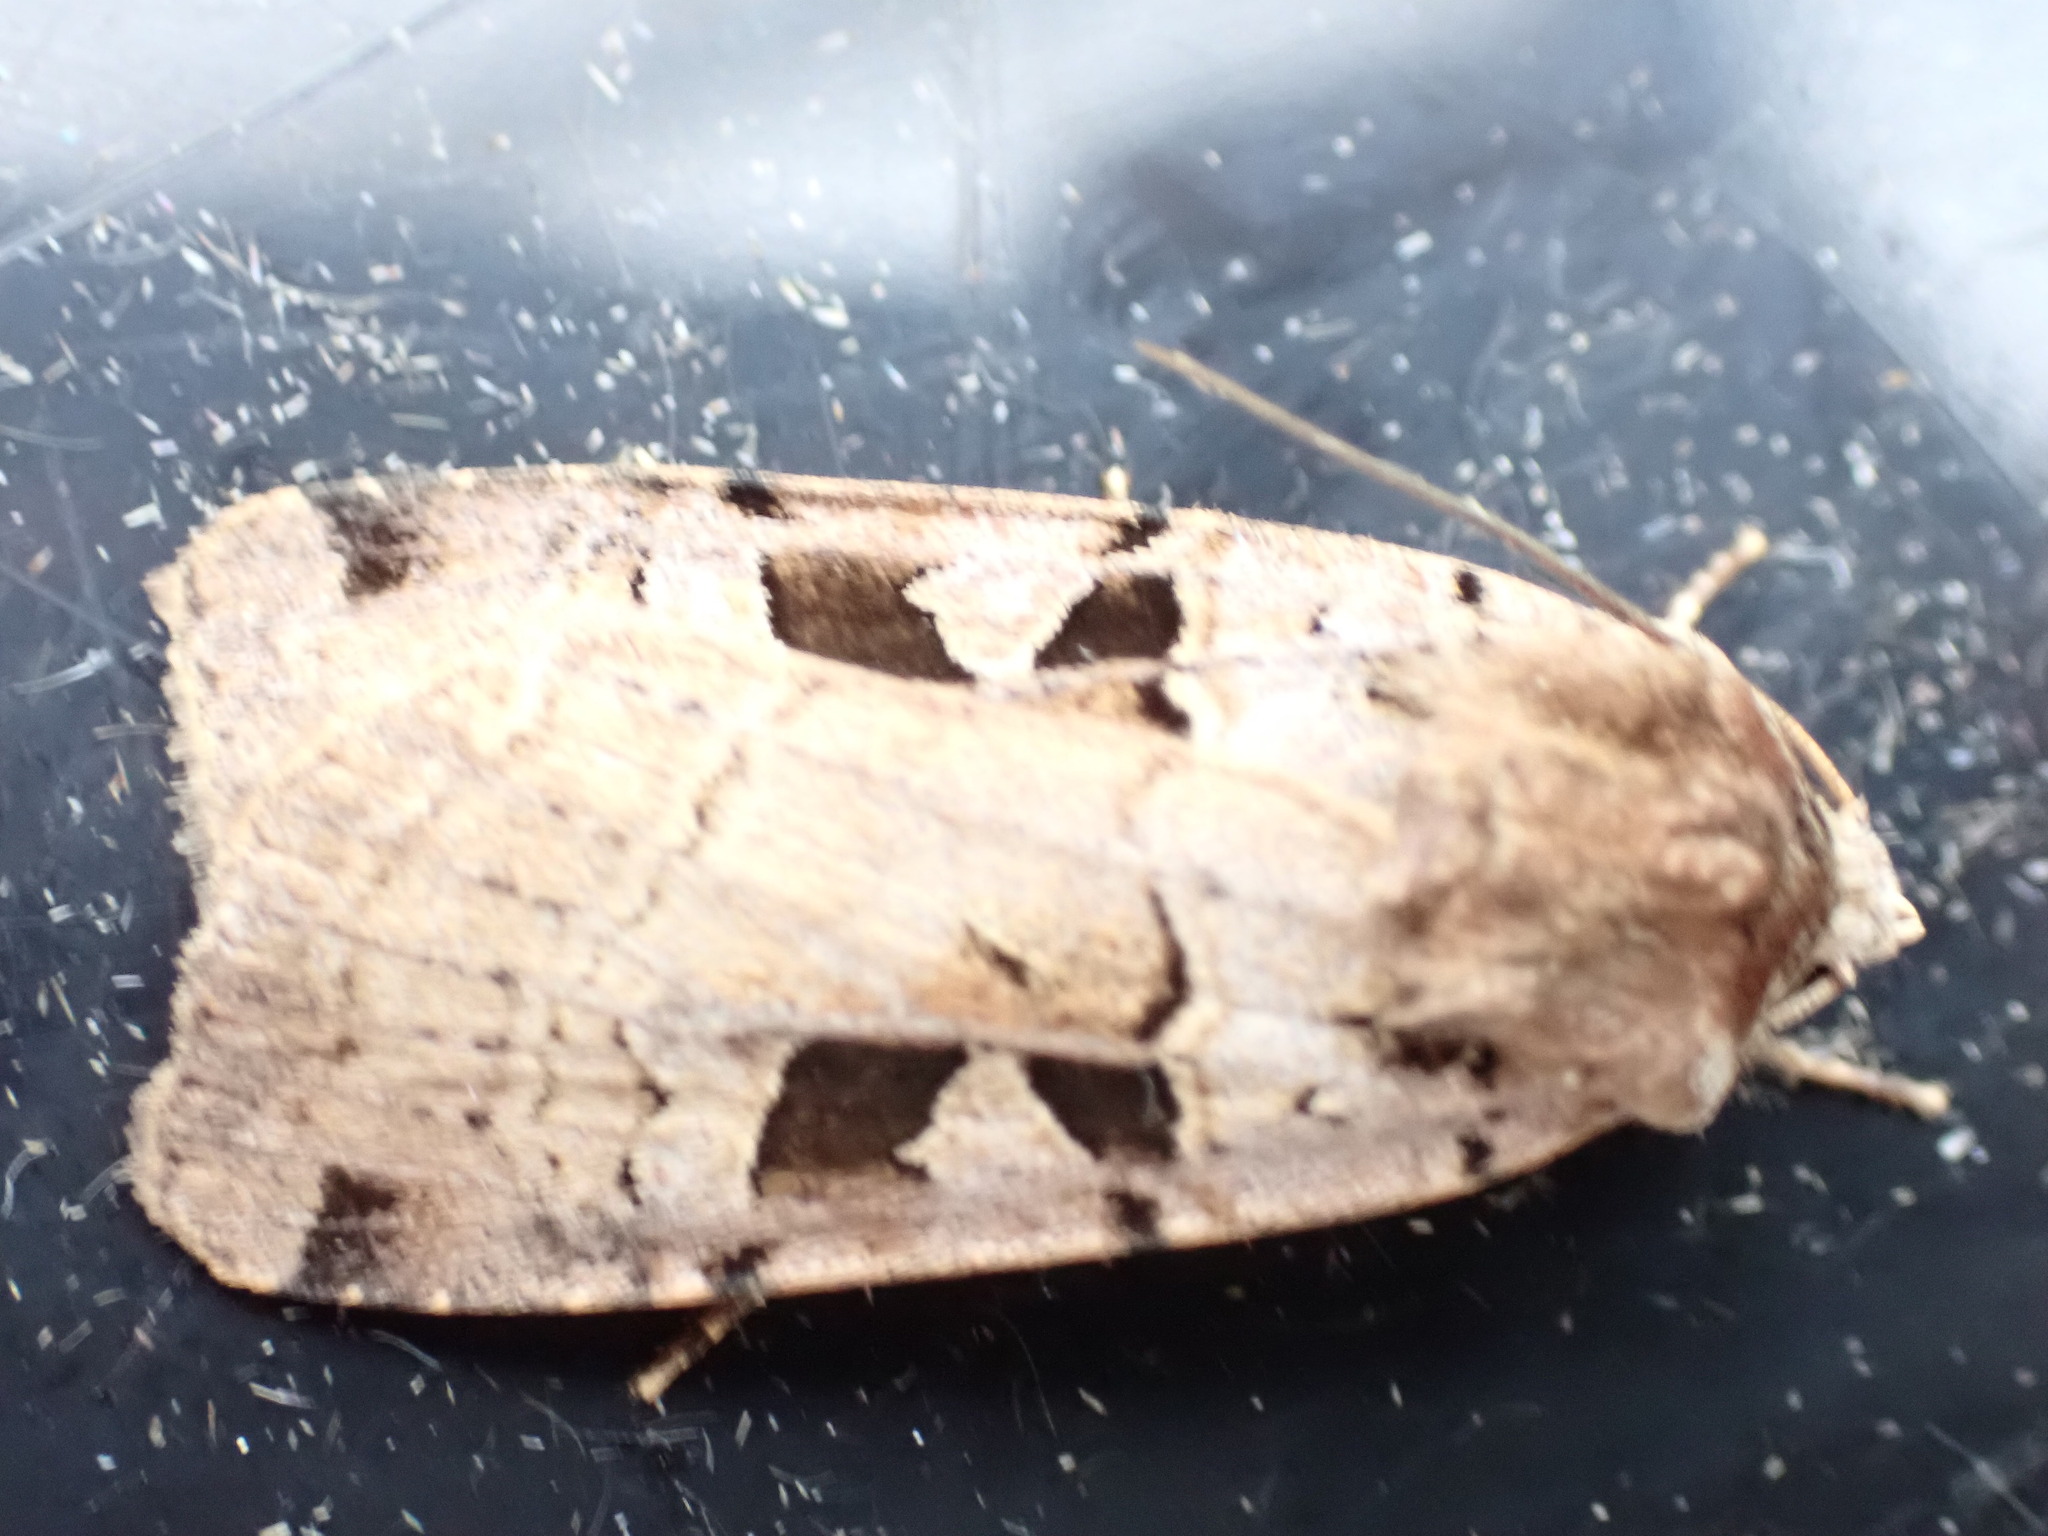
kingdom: Animalia
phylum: Arthropoda
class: Insecta
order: Lepidoptera
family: Noctuidae
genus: Xestia
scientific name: Xestia triangulum
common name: Double square-spot
